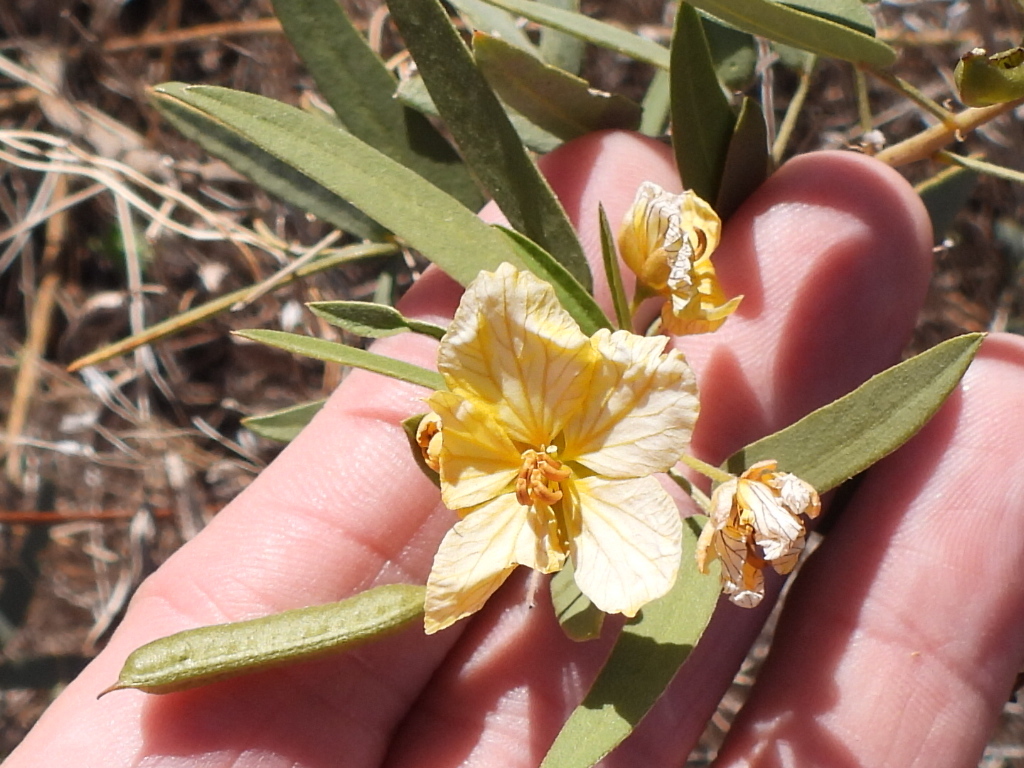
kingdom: Plantae
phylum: Tracheophyta
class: Magnoliopsida
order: Fabales
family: Fabaceae
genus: Senna
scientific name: Senna roemeriana
